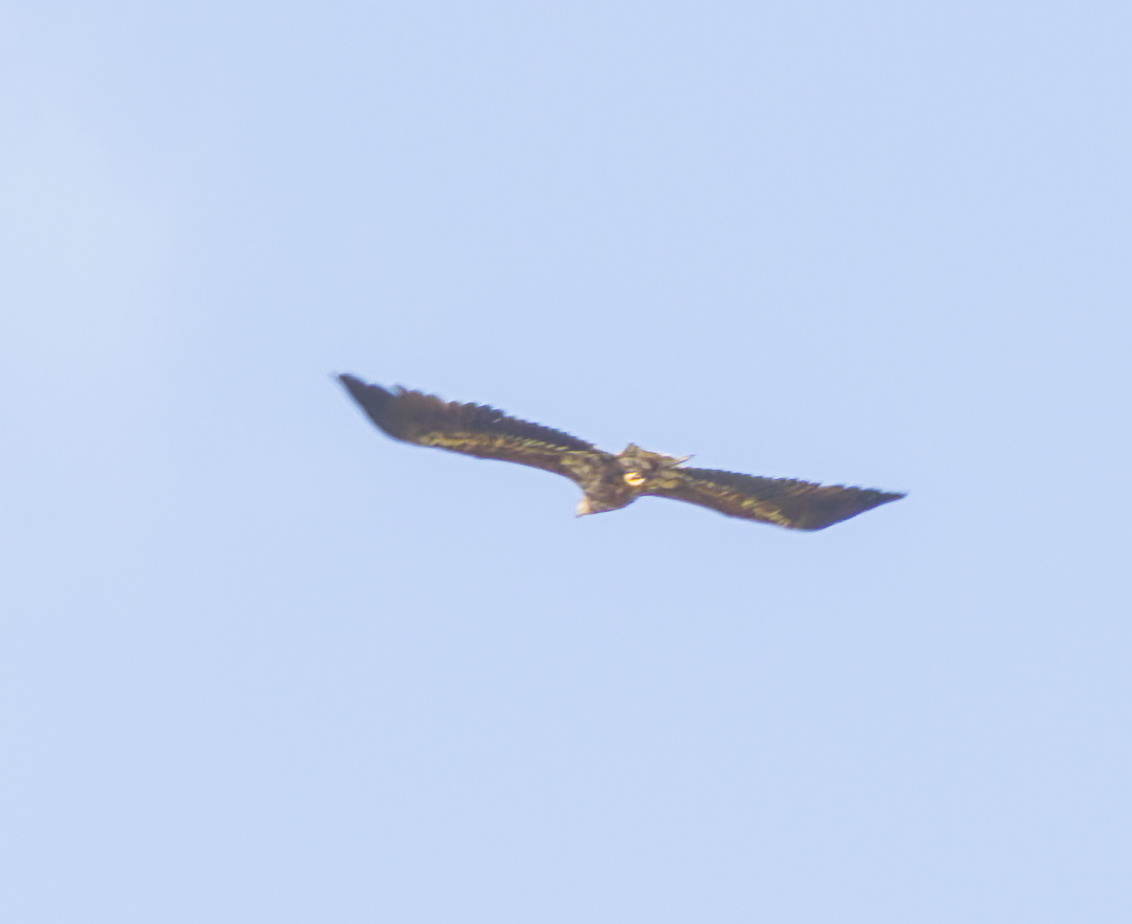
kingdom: Animalia
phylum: Chordata
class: Aves
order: Accipitriformes
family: Accipitridae
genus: Haliaeetus
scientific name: Haliaeetus albicilla
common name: White-tailed eagle
